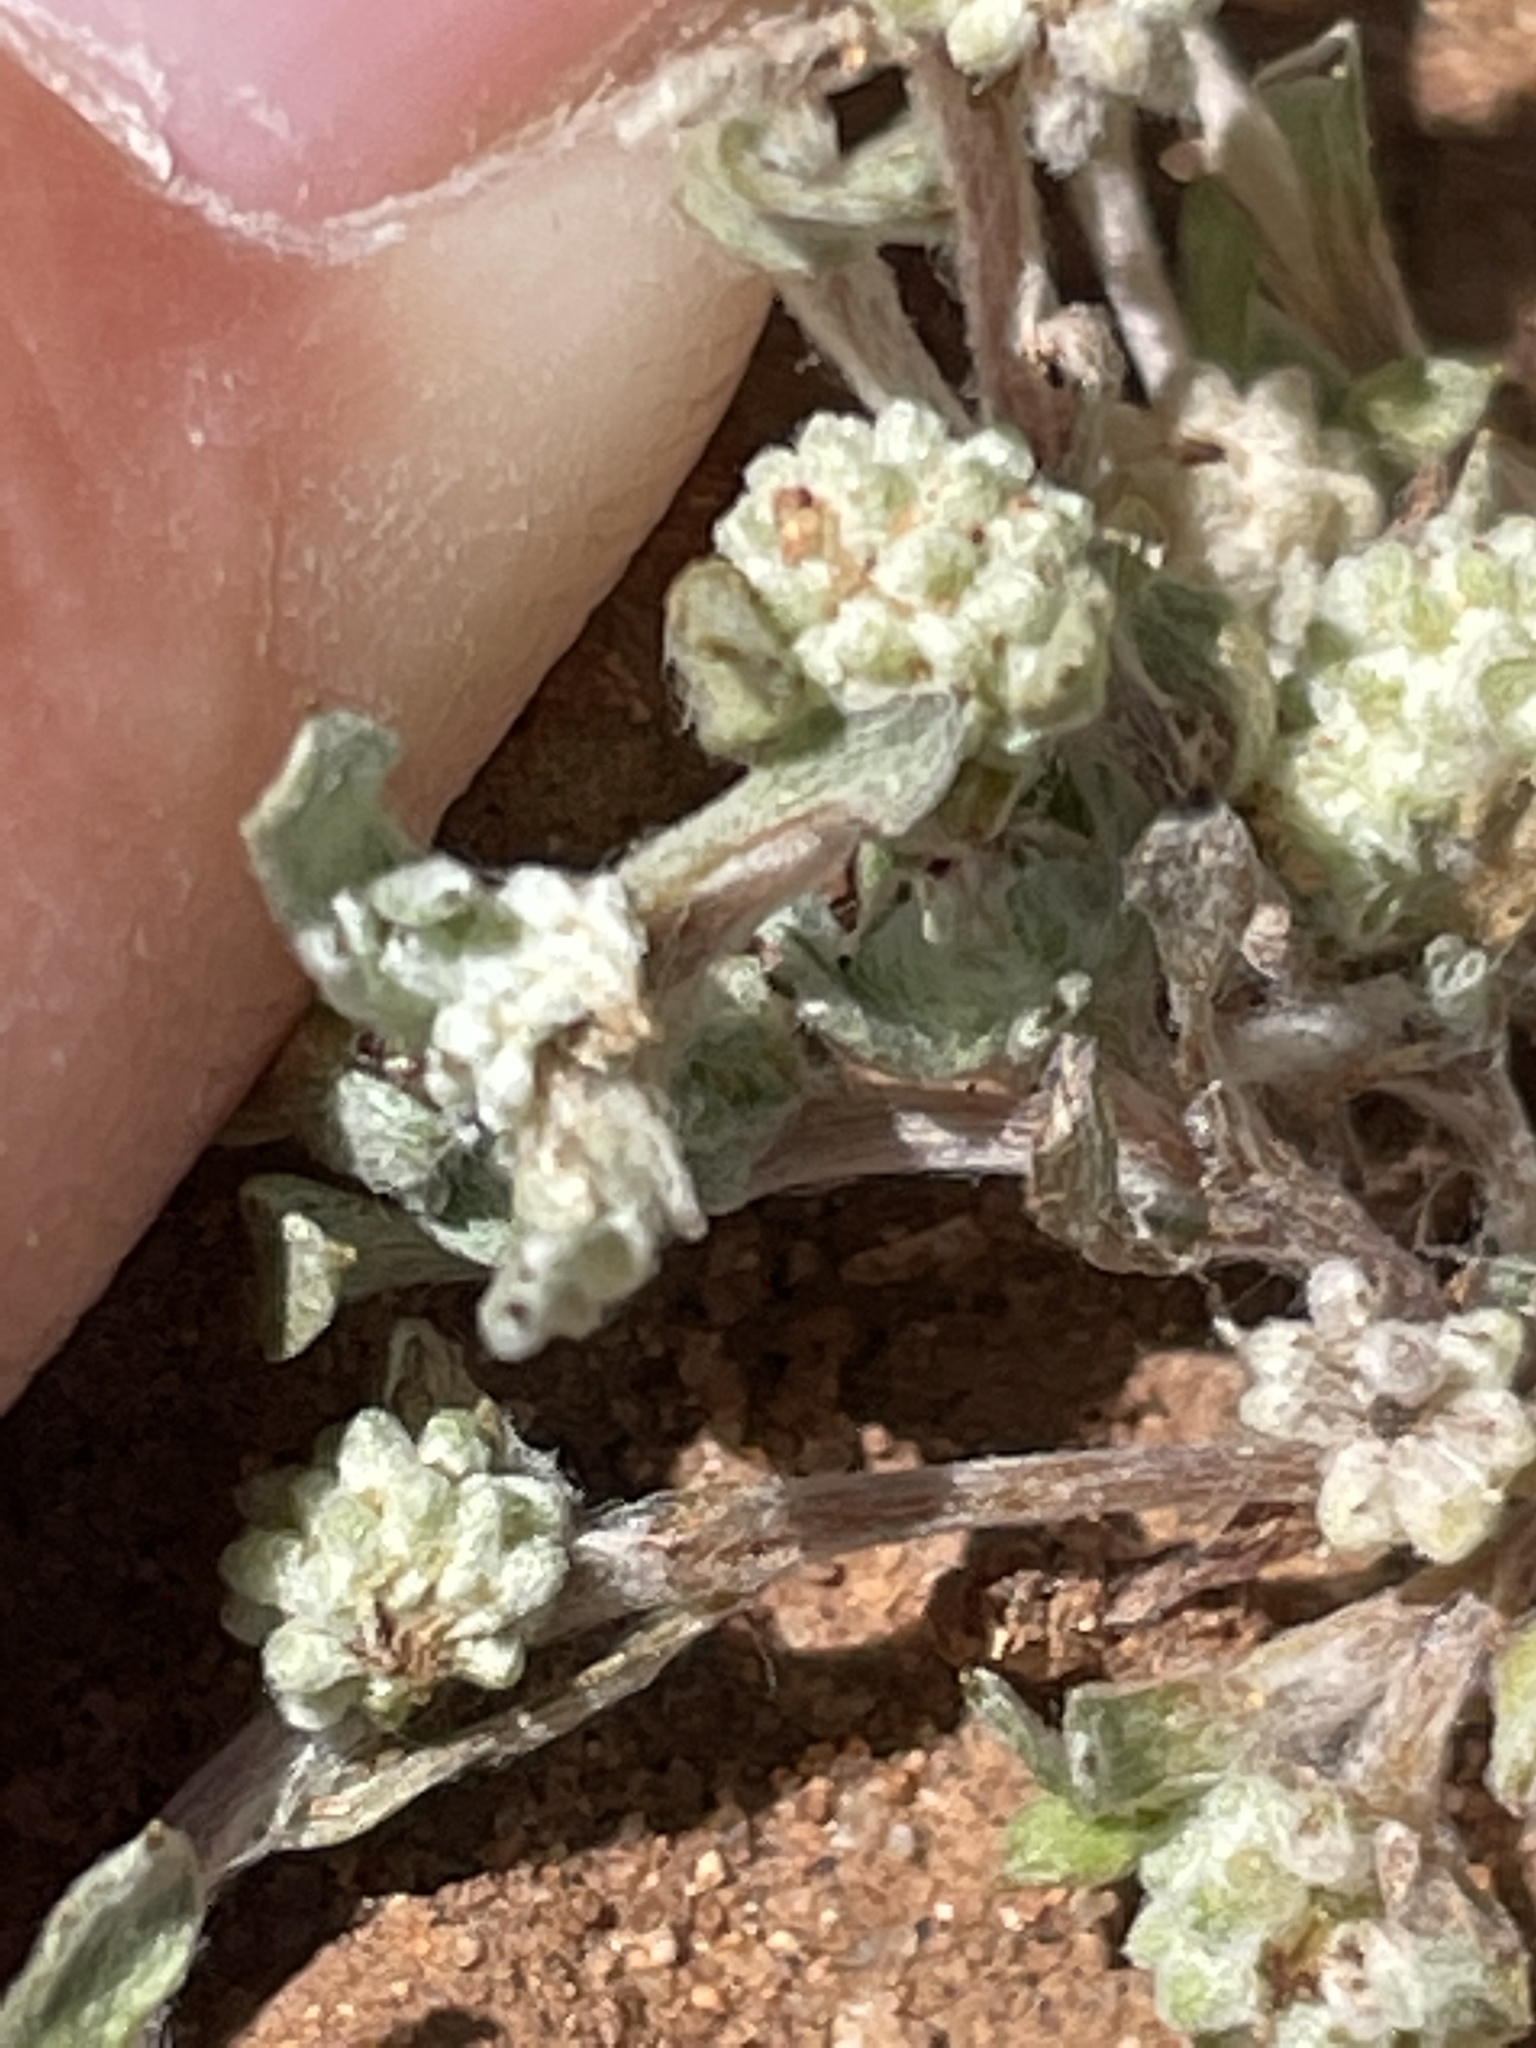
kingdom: Plantae
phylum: Tracheophyta
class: Magnoliopsida
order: Asterales
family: Asteraceae
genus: Psilocarphus
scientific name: Psilocarphus tenellus
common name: Slender woolly-marbles
